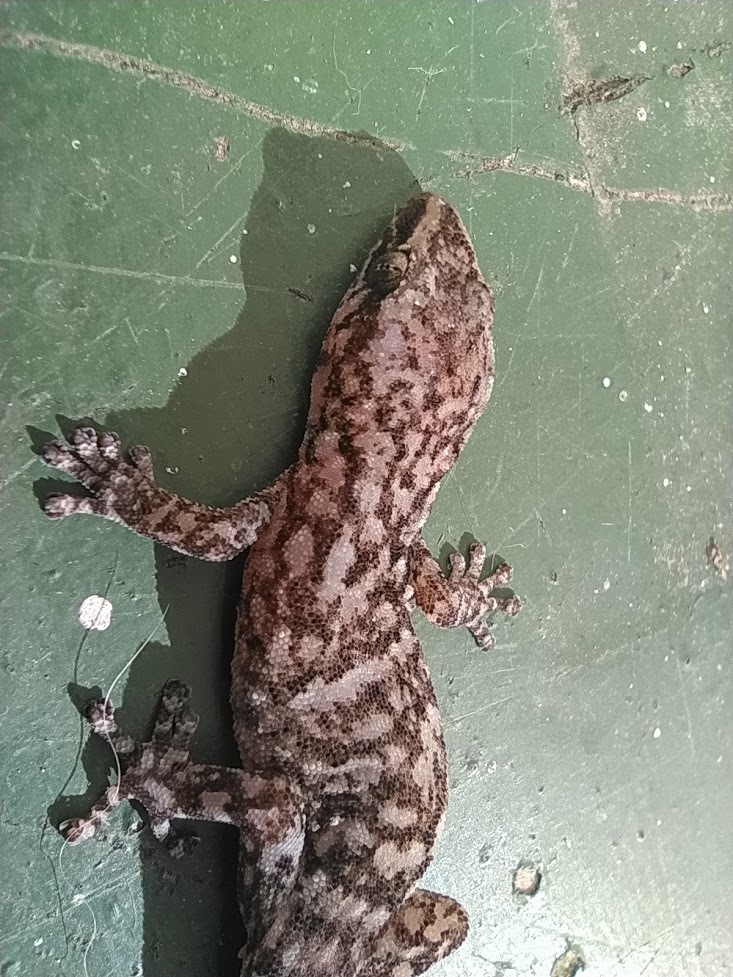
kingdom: Animalia
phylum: Chordata
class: Squamata
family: Gekkonidae
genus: Afrogecko
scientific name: Afrogecko porphyreus
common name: Marbled leaf-toed gecko
